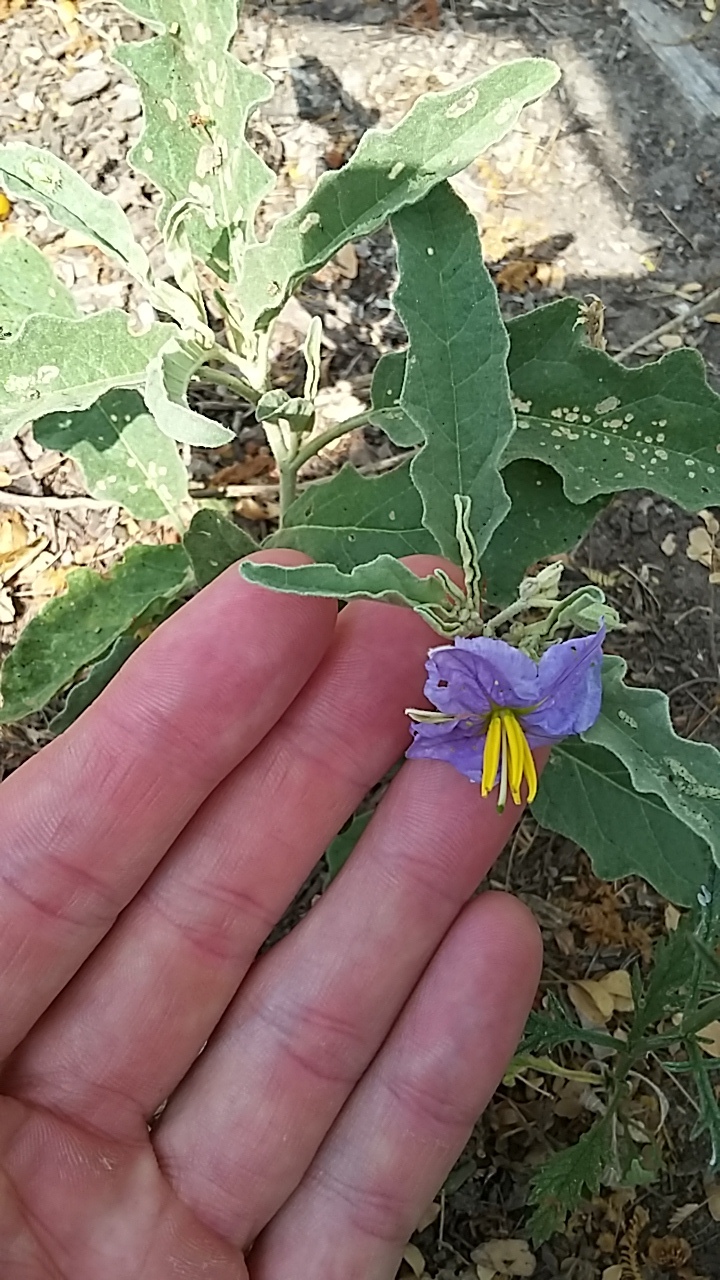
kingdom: Plantae
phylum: Tracheophyta
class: Magnoliopsida
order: Solanales
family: Solanaceae
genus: Solanum
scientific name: Solanum elaeagnifolium
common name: Silverleaf nightshade
